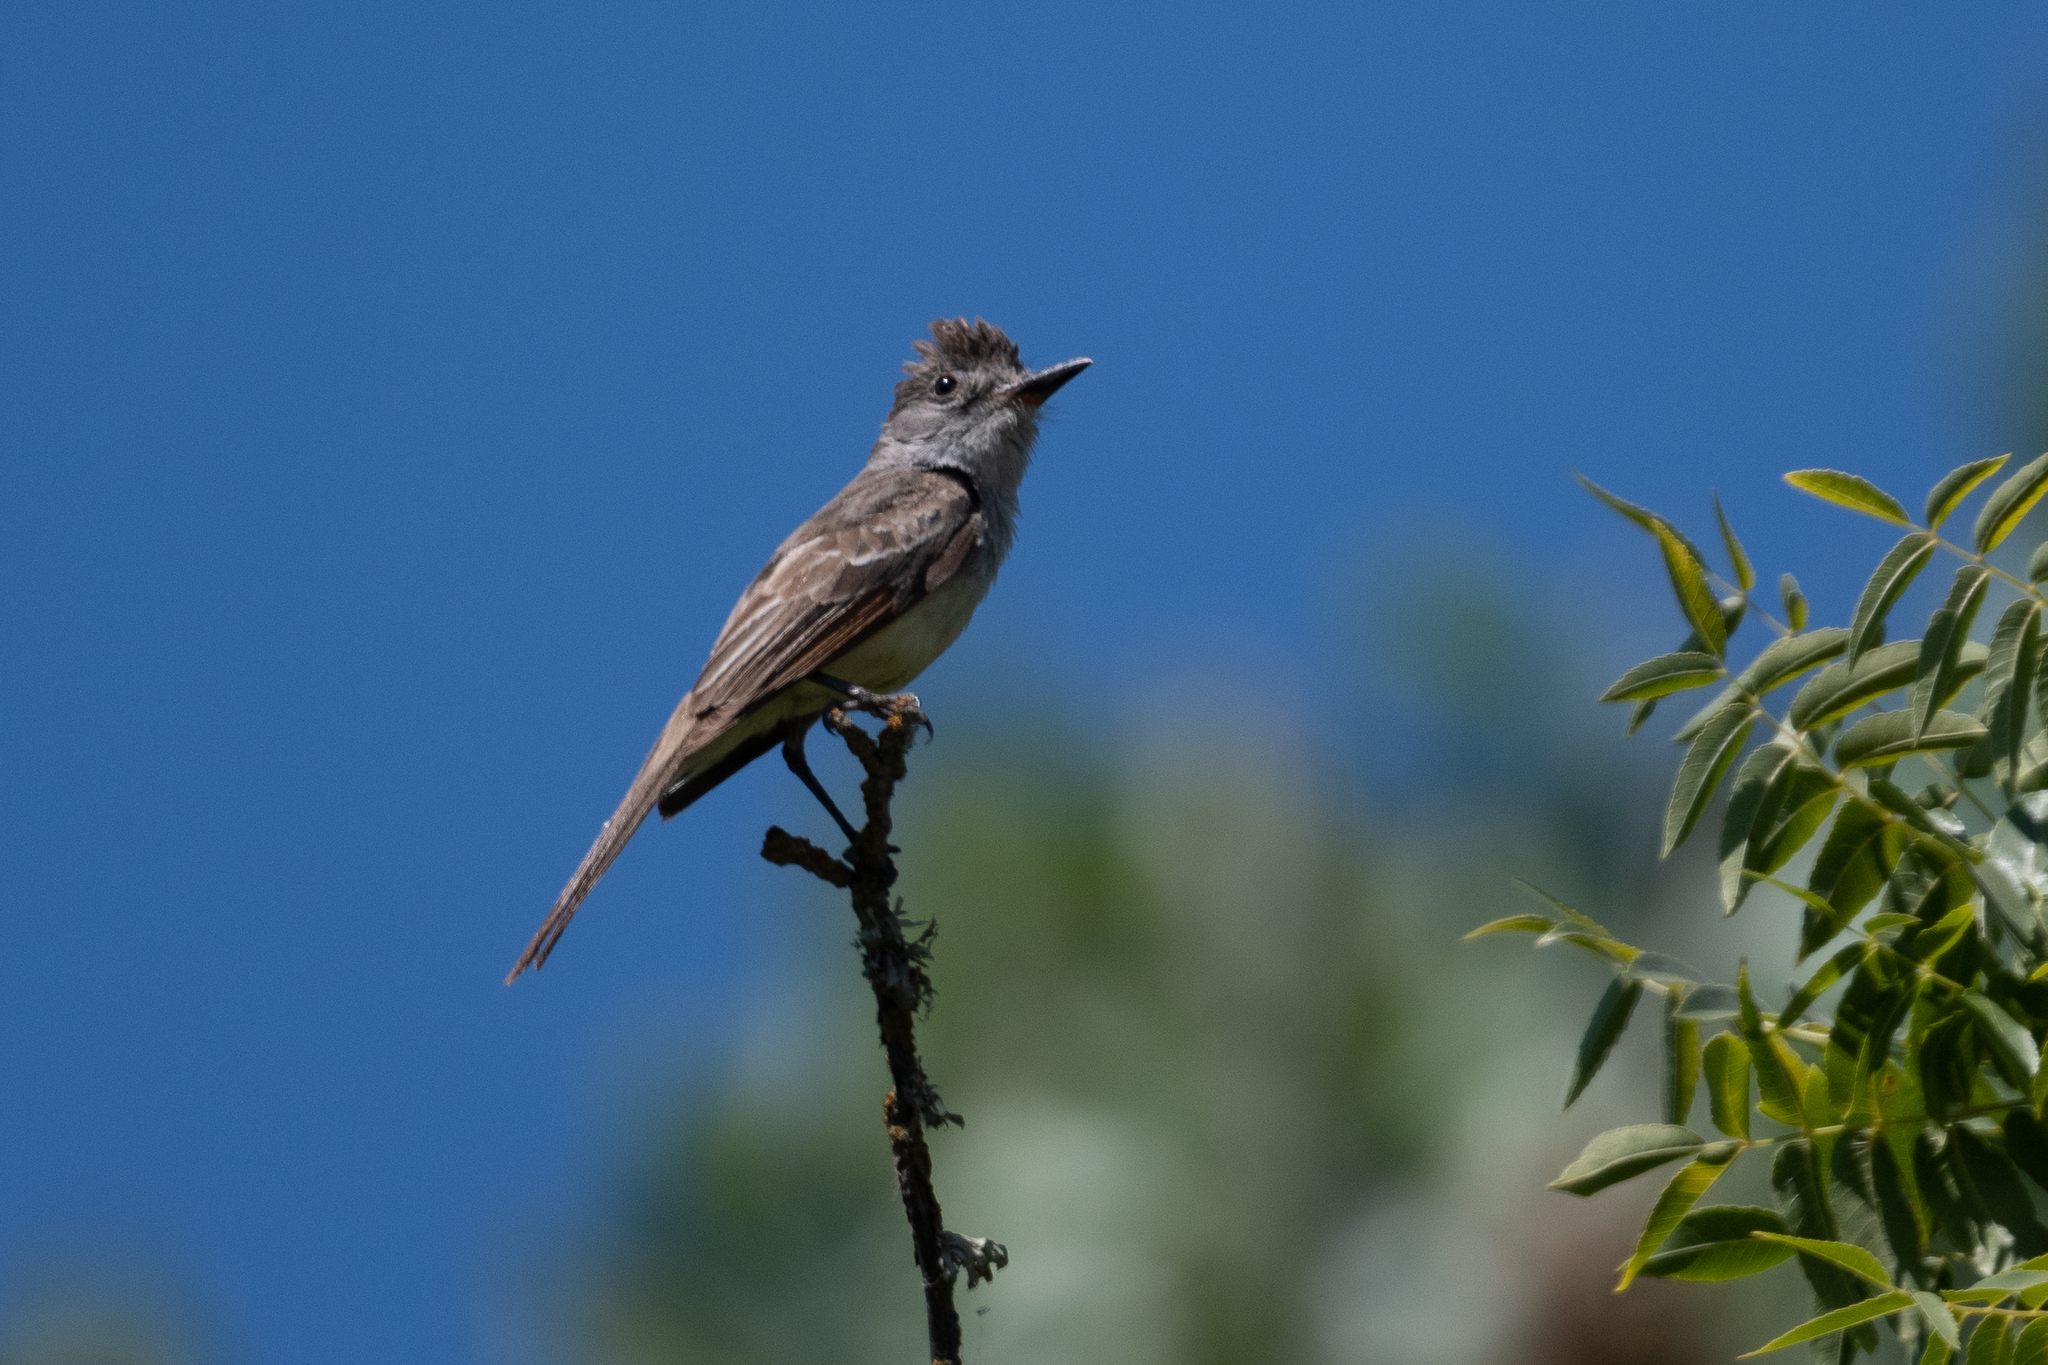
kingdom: Animalia
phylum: Chordata
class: Aves
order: Passeriformes
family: Tyrannidae
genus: Myiarchus
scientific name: Myiarchus cinerascens
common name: Ash-throated flycatcher
